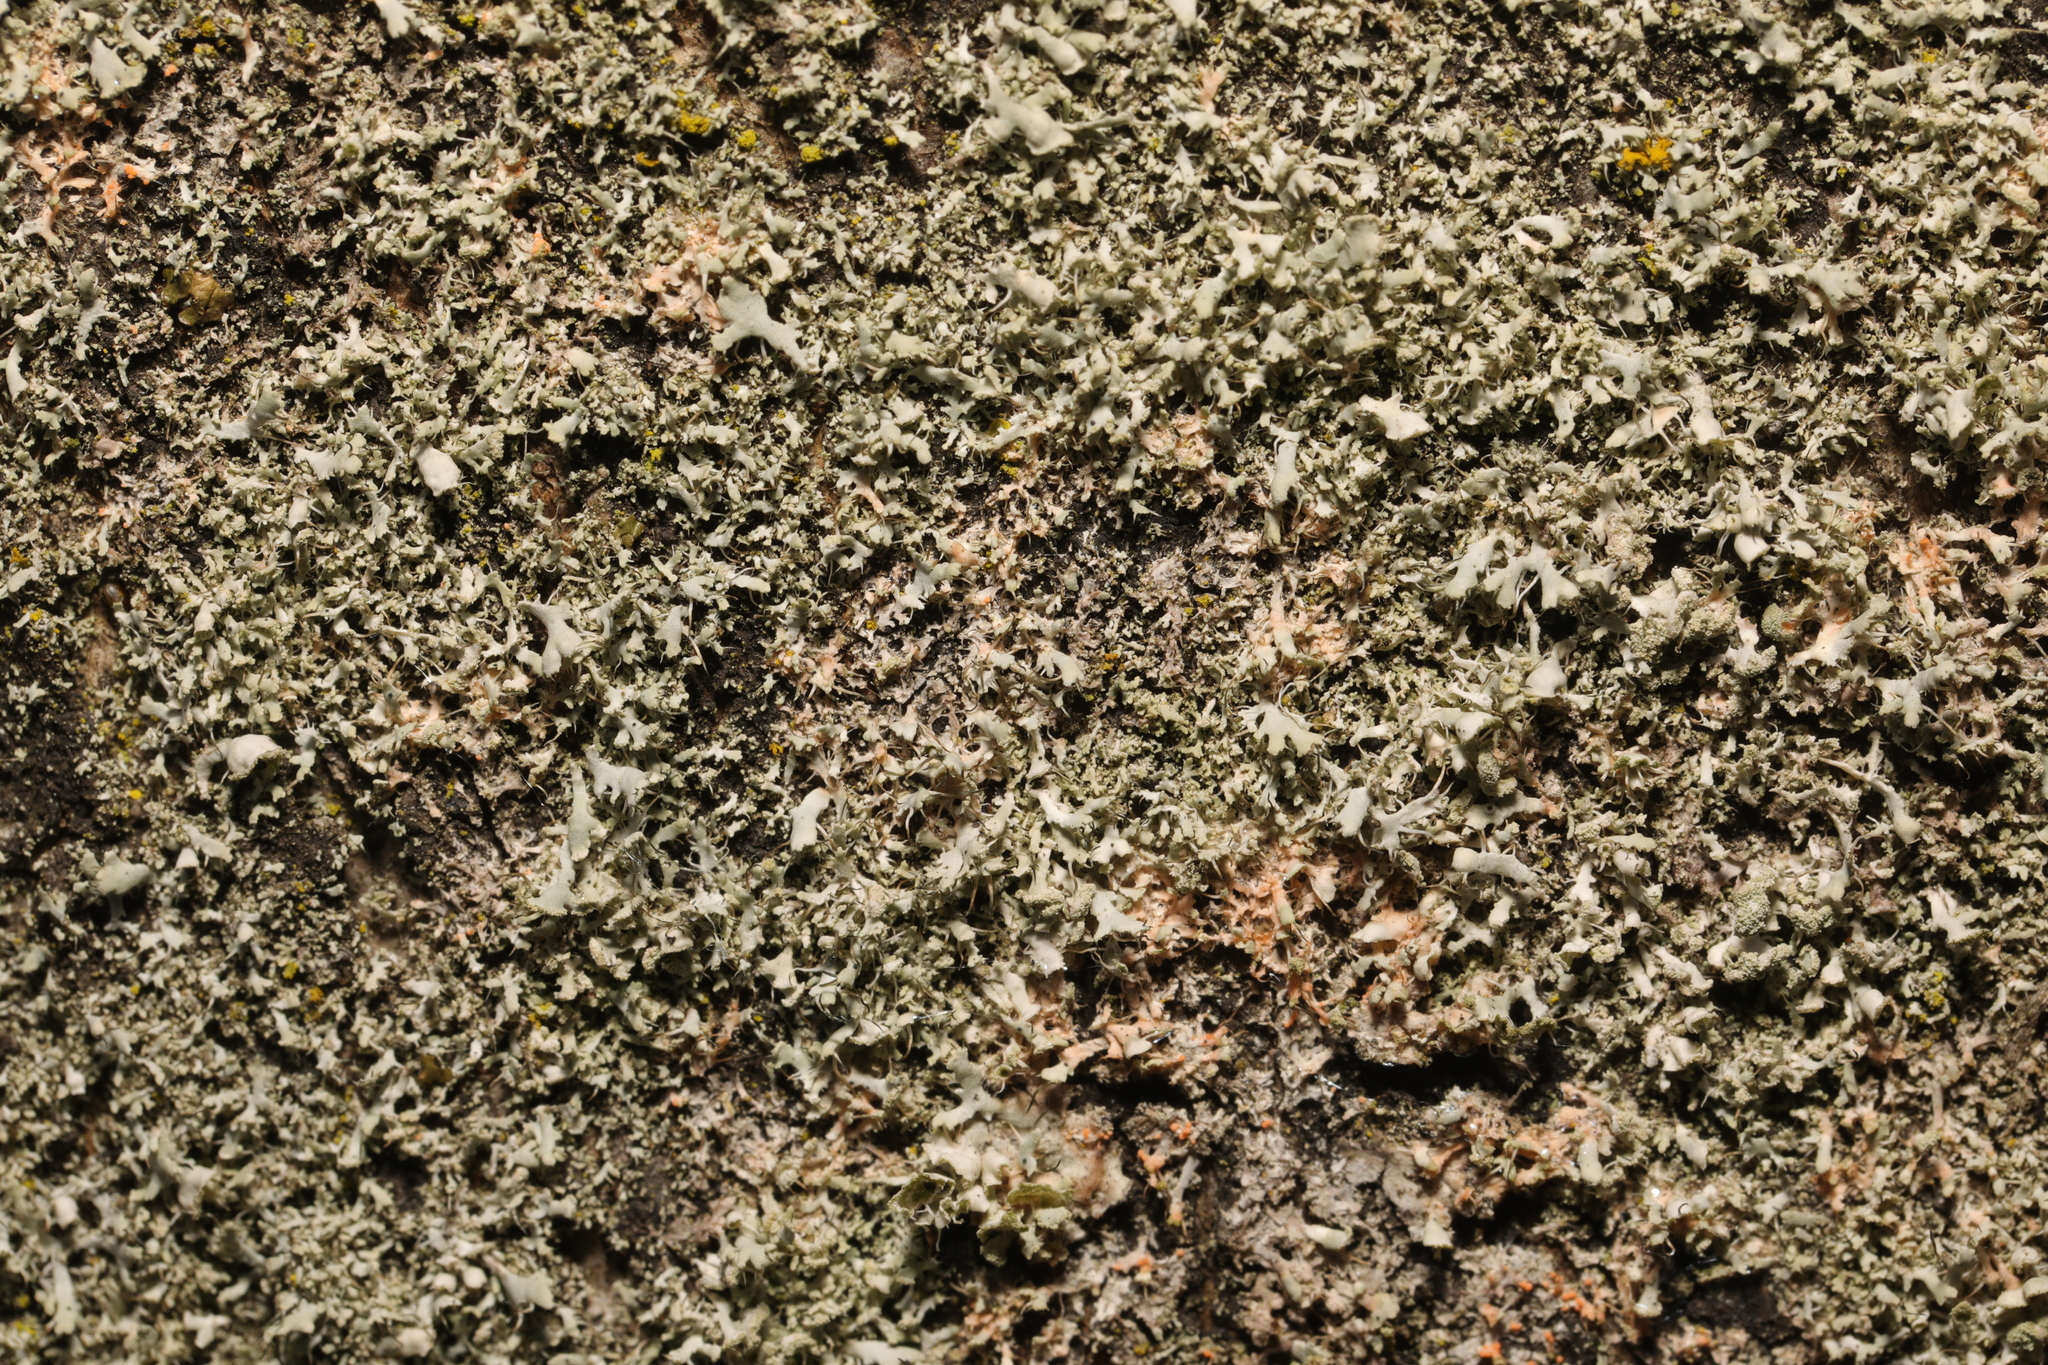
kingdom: Fungi
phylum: Ascomycota
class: Lecanoromycetes
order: Caliciales
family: Physciaceae
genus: Physcia
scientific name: Physcia tenella
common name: Fringed rosette lichen
